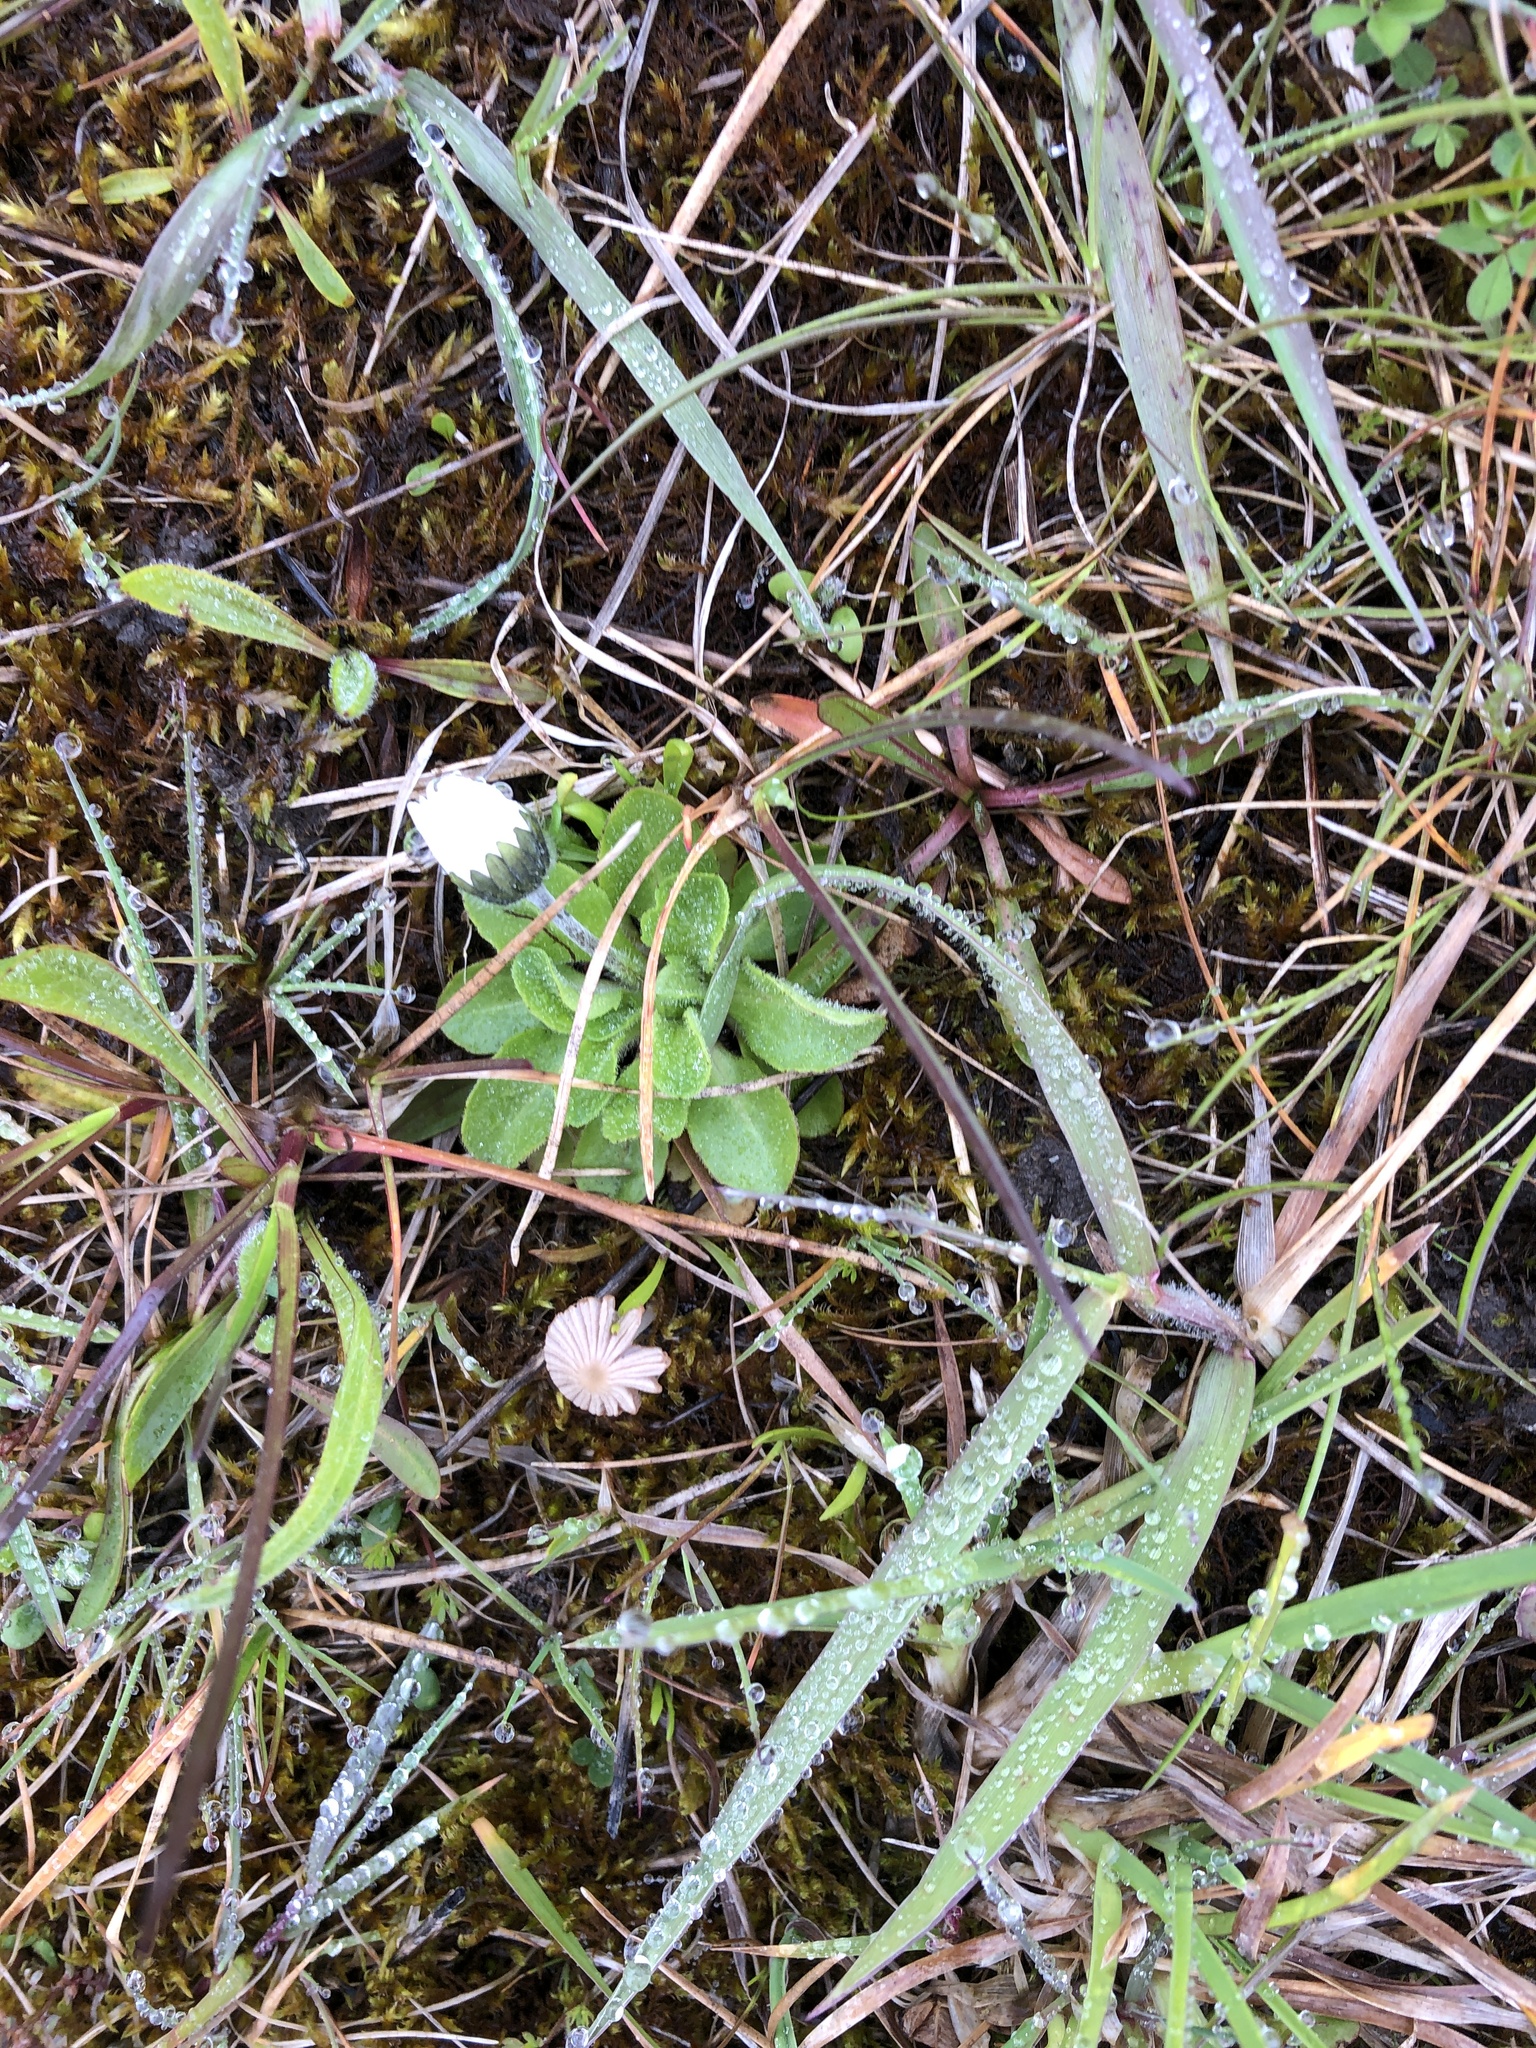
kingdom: Plantae
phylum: Tracheophyta
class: Magnoliopsida
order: Asterales
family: Asteraceae
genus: Bellis
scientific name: Bellis perennis
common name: Lawndaisy
